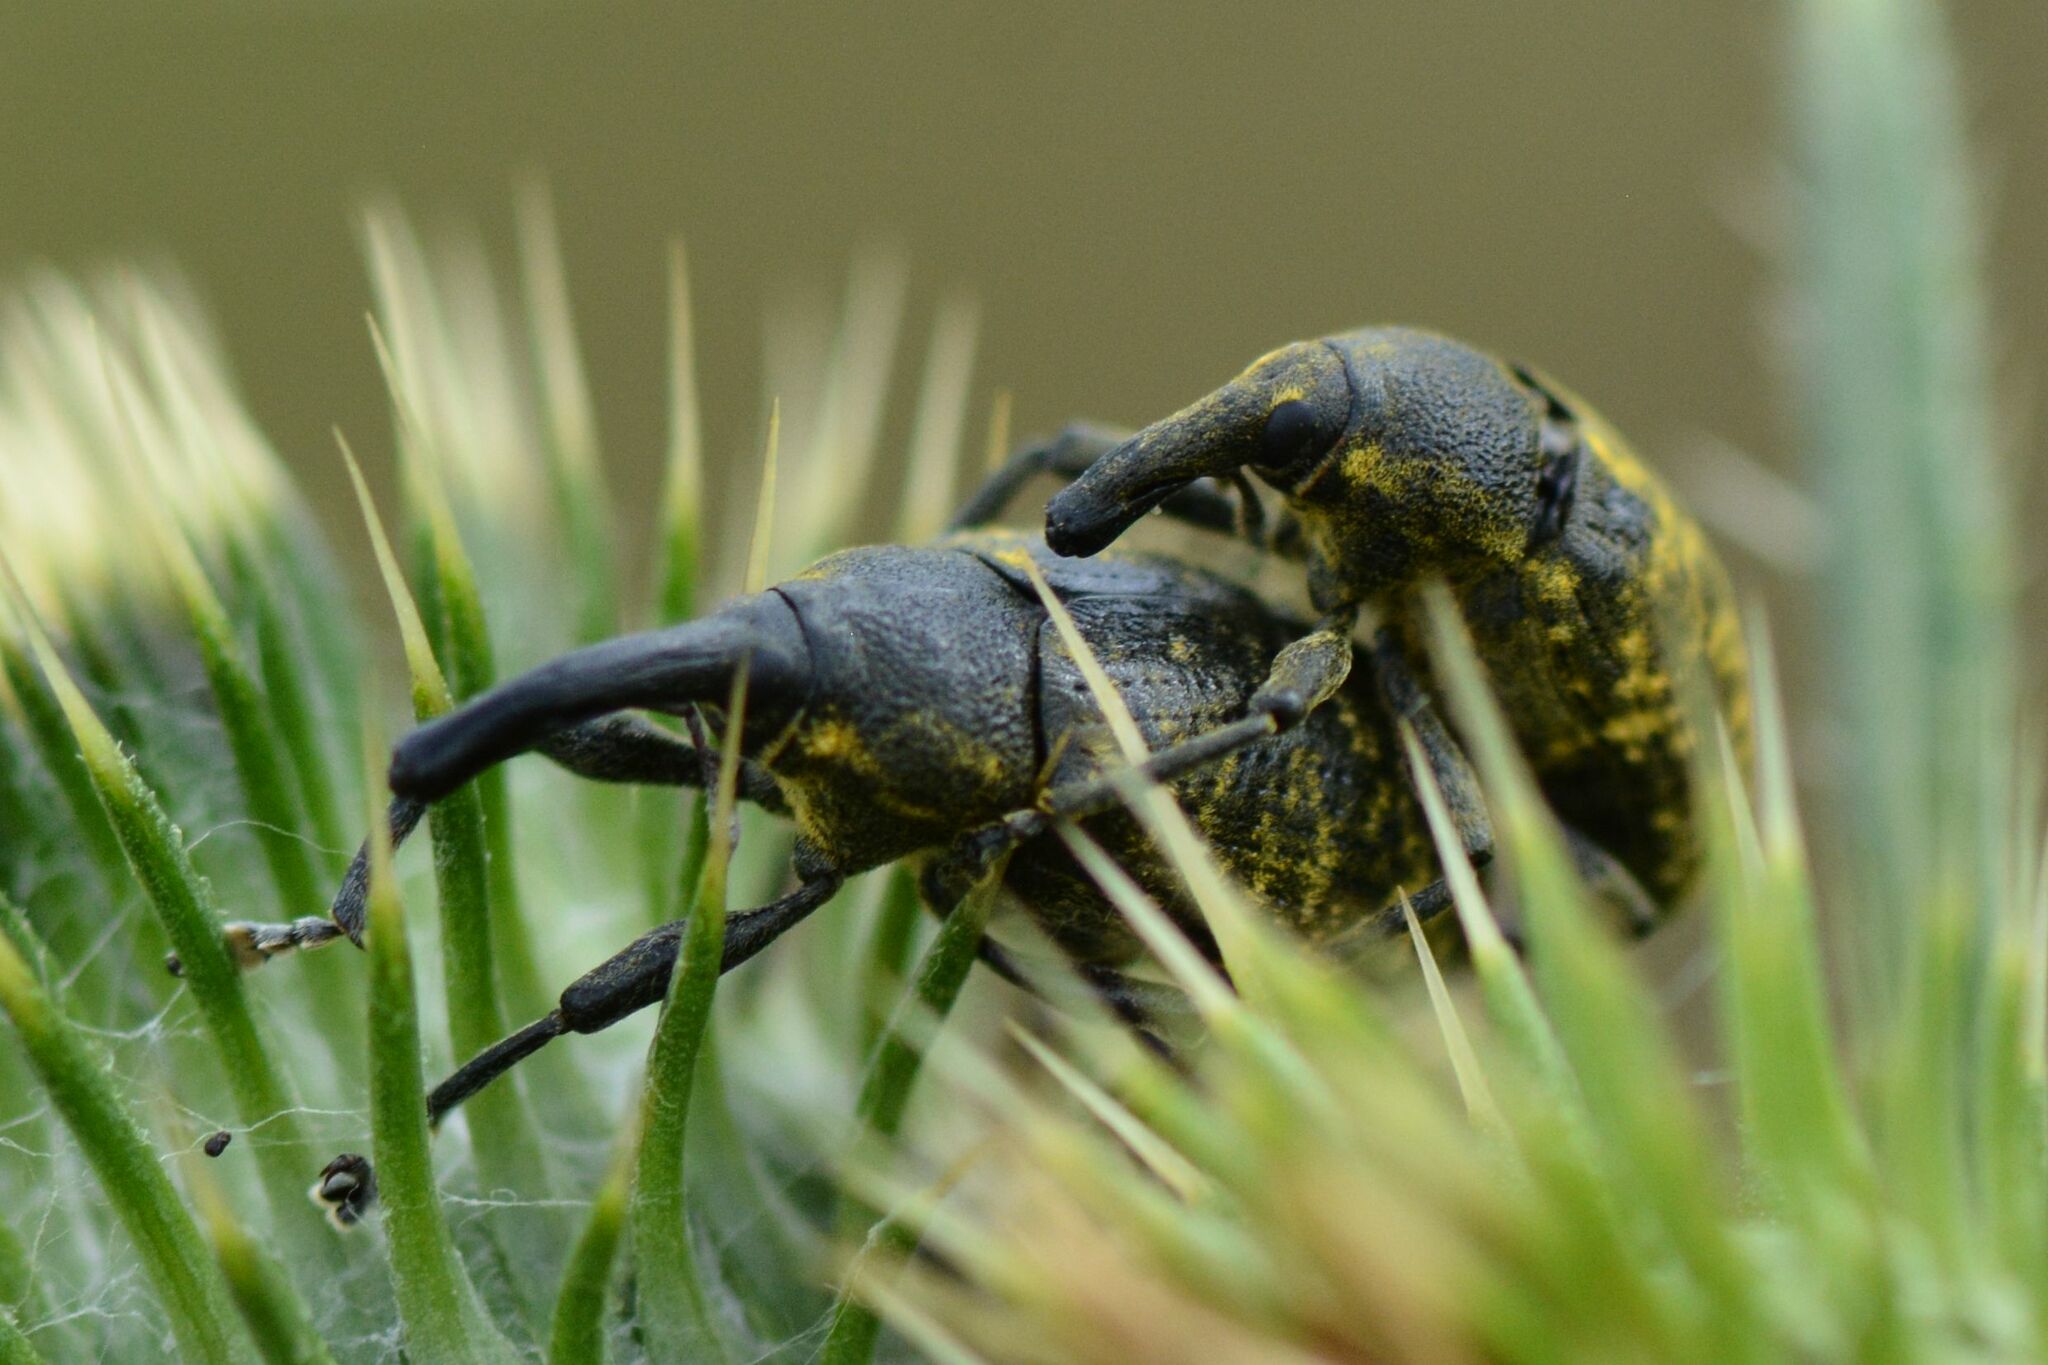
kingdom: Animalia
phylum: Arthropoda
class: Insecta
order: Coleoptera
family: Curculionidae
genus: Larinus
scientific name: Larinus sturnus
